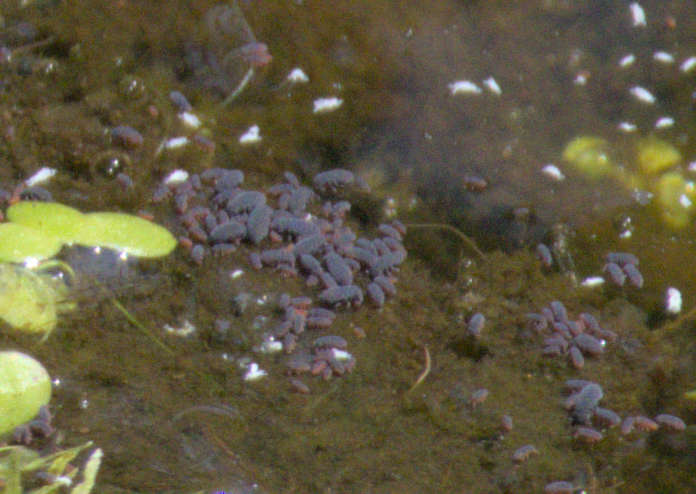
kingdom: Animalia
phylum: Arthropoda
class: Collembola
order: Poduromorpha
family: Poduridae
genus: Podura
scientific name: Podura aquatica
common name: Water springtail
